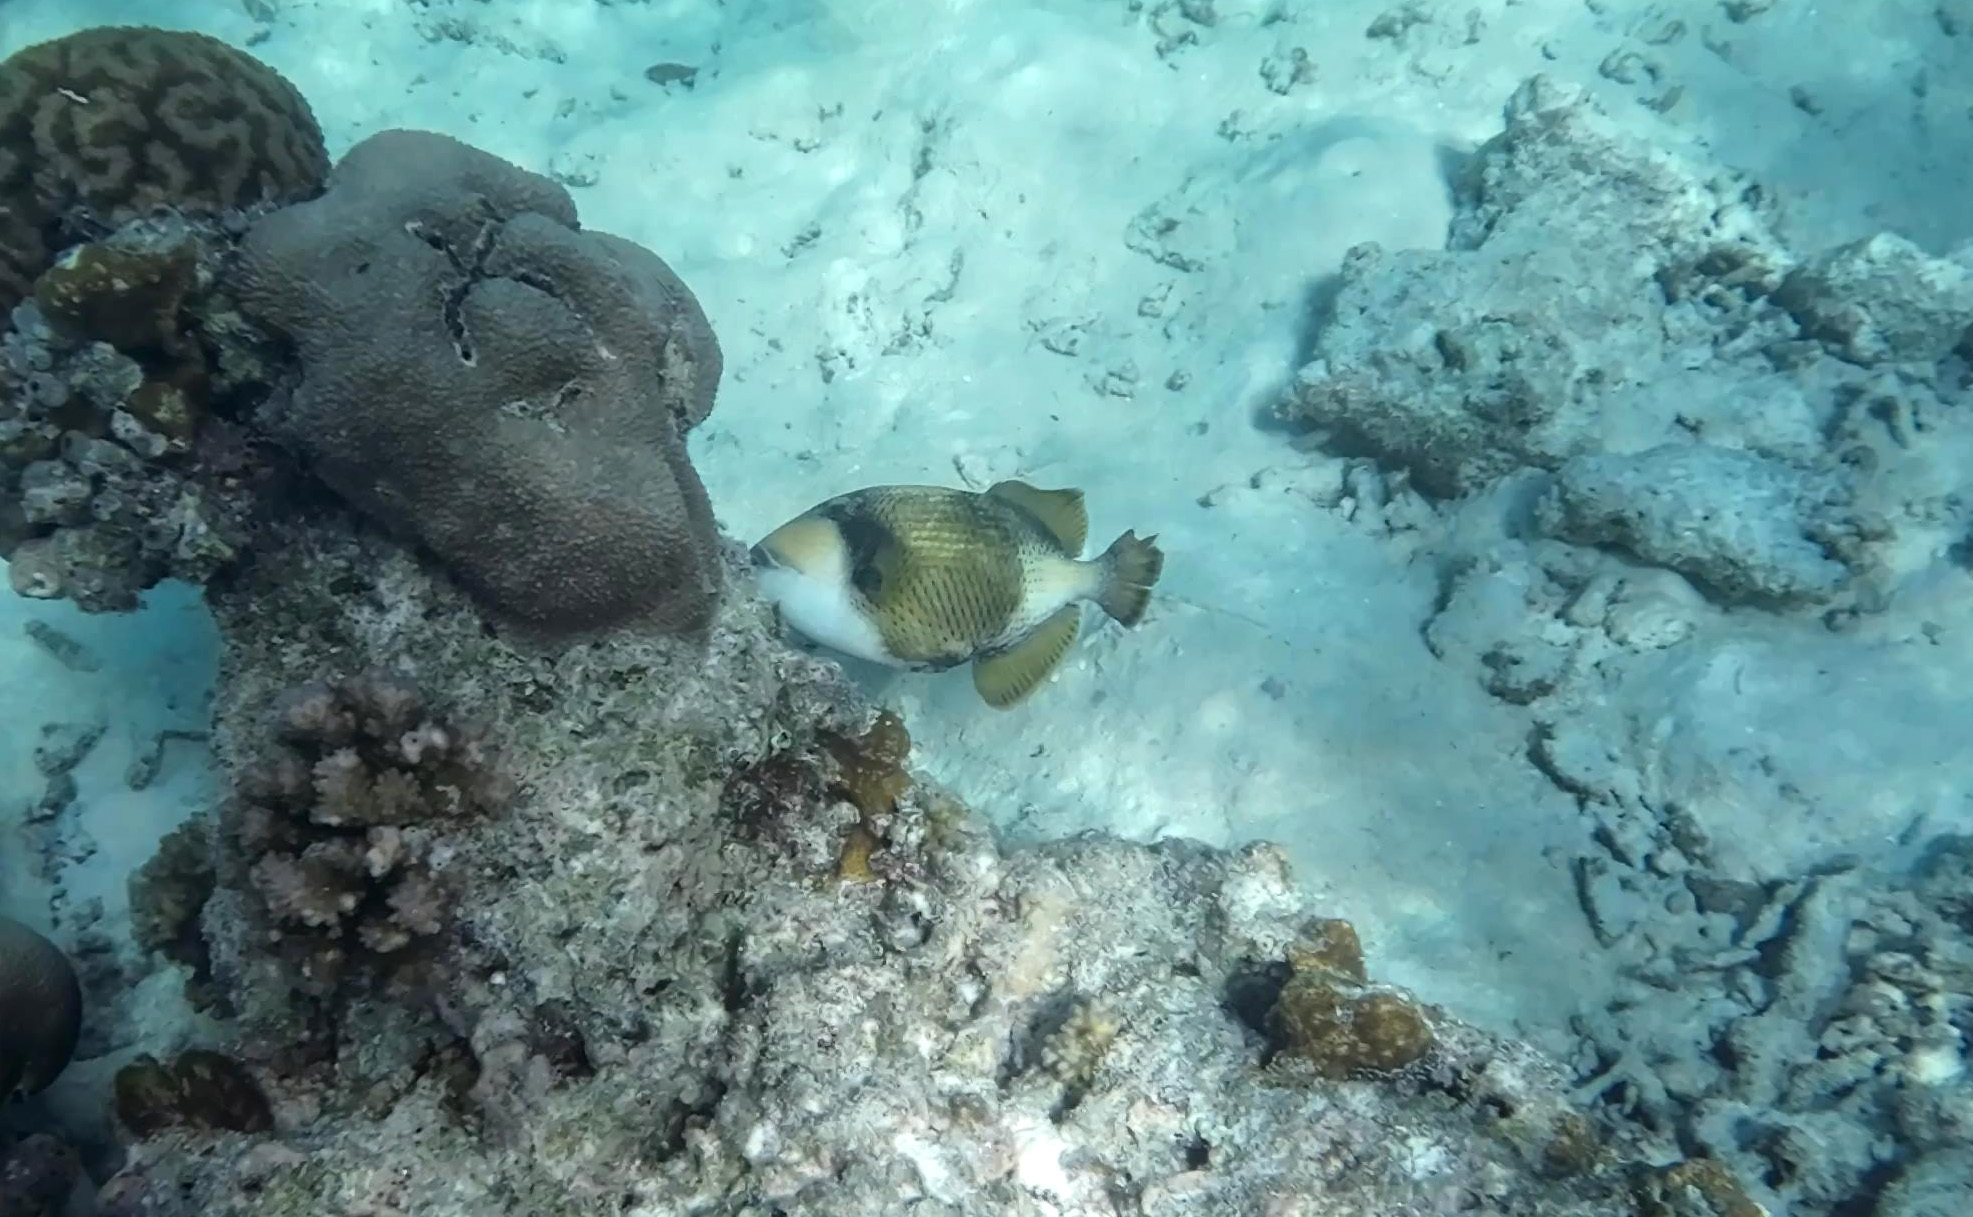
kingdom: Animalia
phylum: Chordata
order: Tetraodontiformes
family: Balistidae
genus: Balistoides
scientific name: Balistoides viridescens
